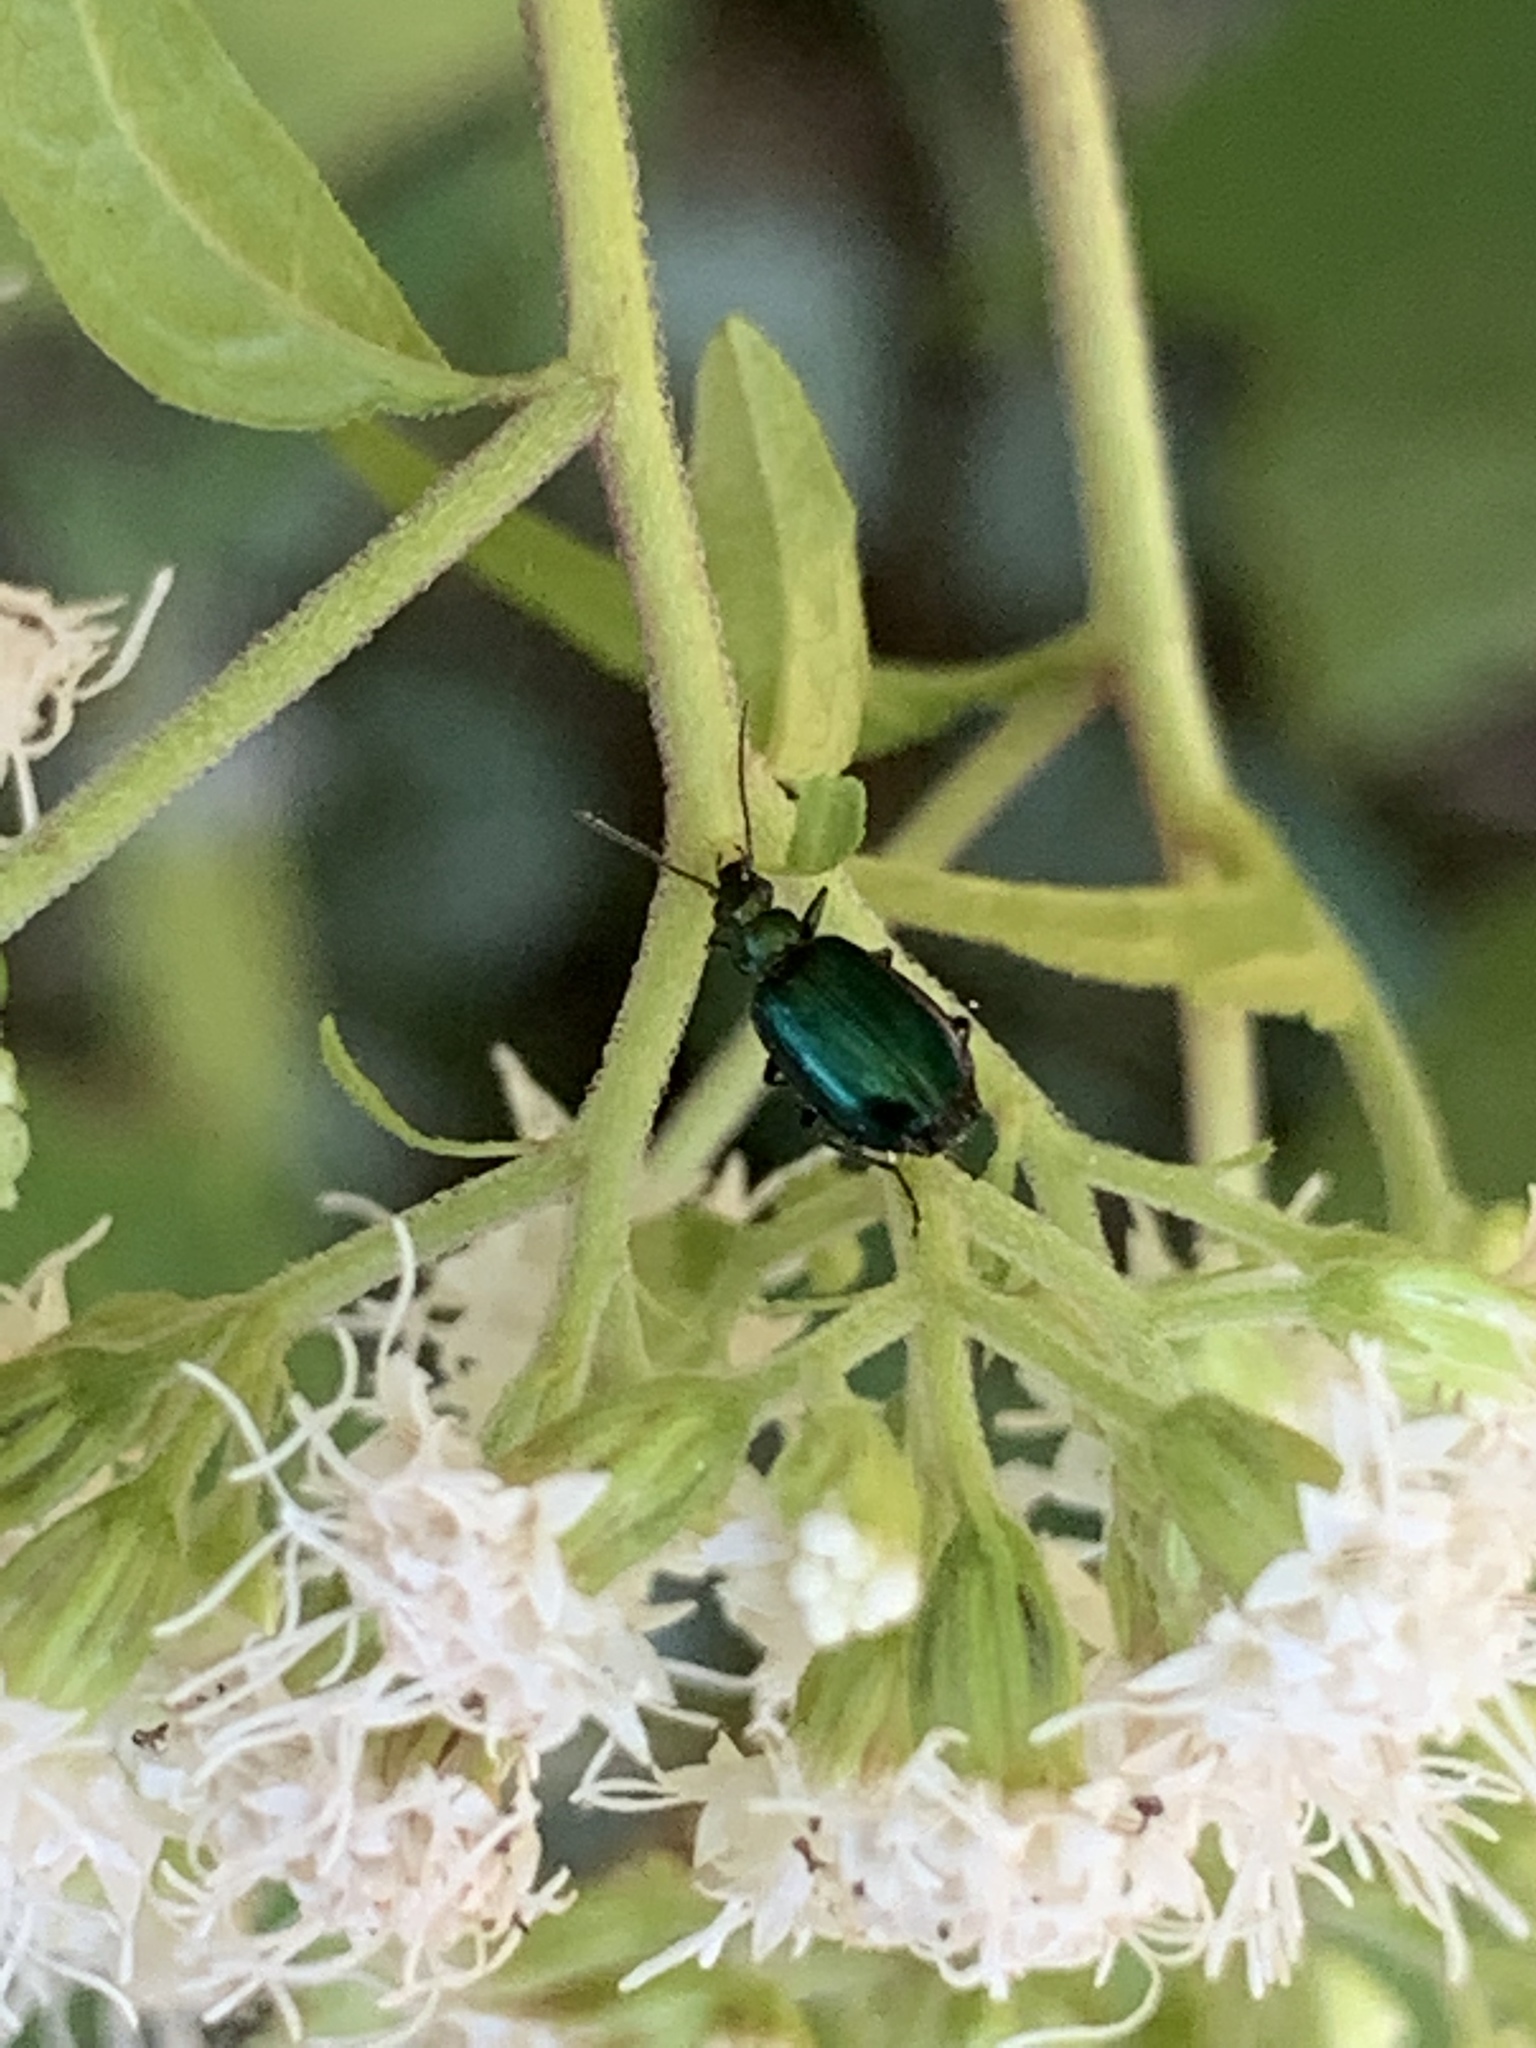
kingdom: Animalia
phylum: Arthropoda
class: Insecta
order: Coleoptera
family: Carabidae
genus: Lebia
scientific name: Lebia viridis
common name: Flower lebia beetle
